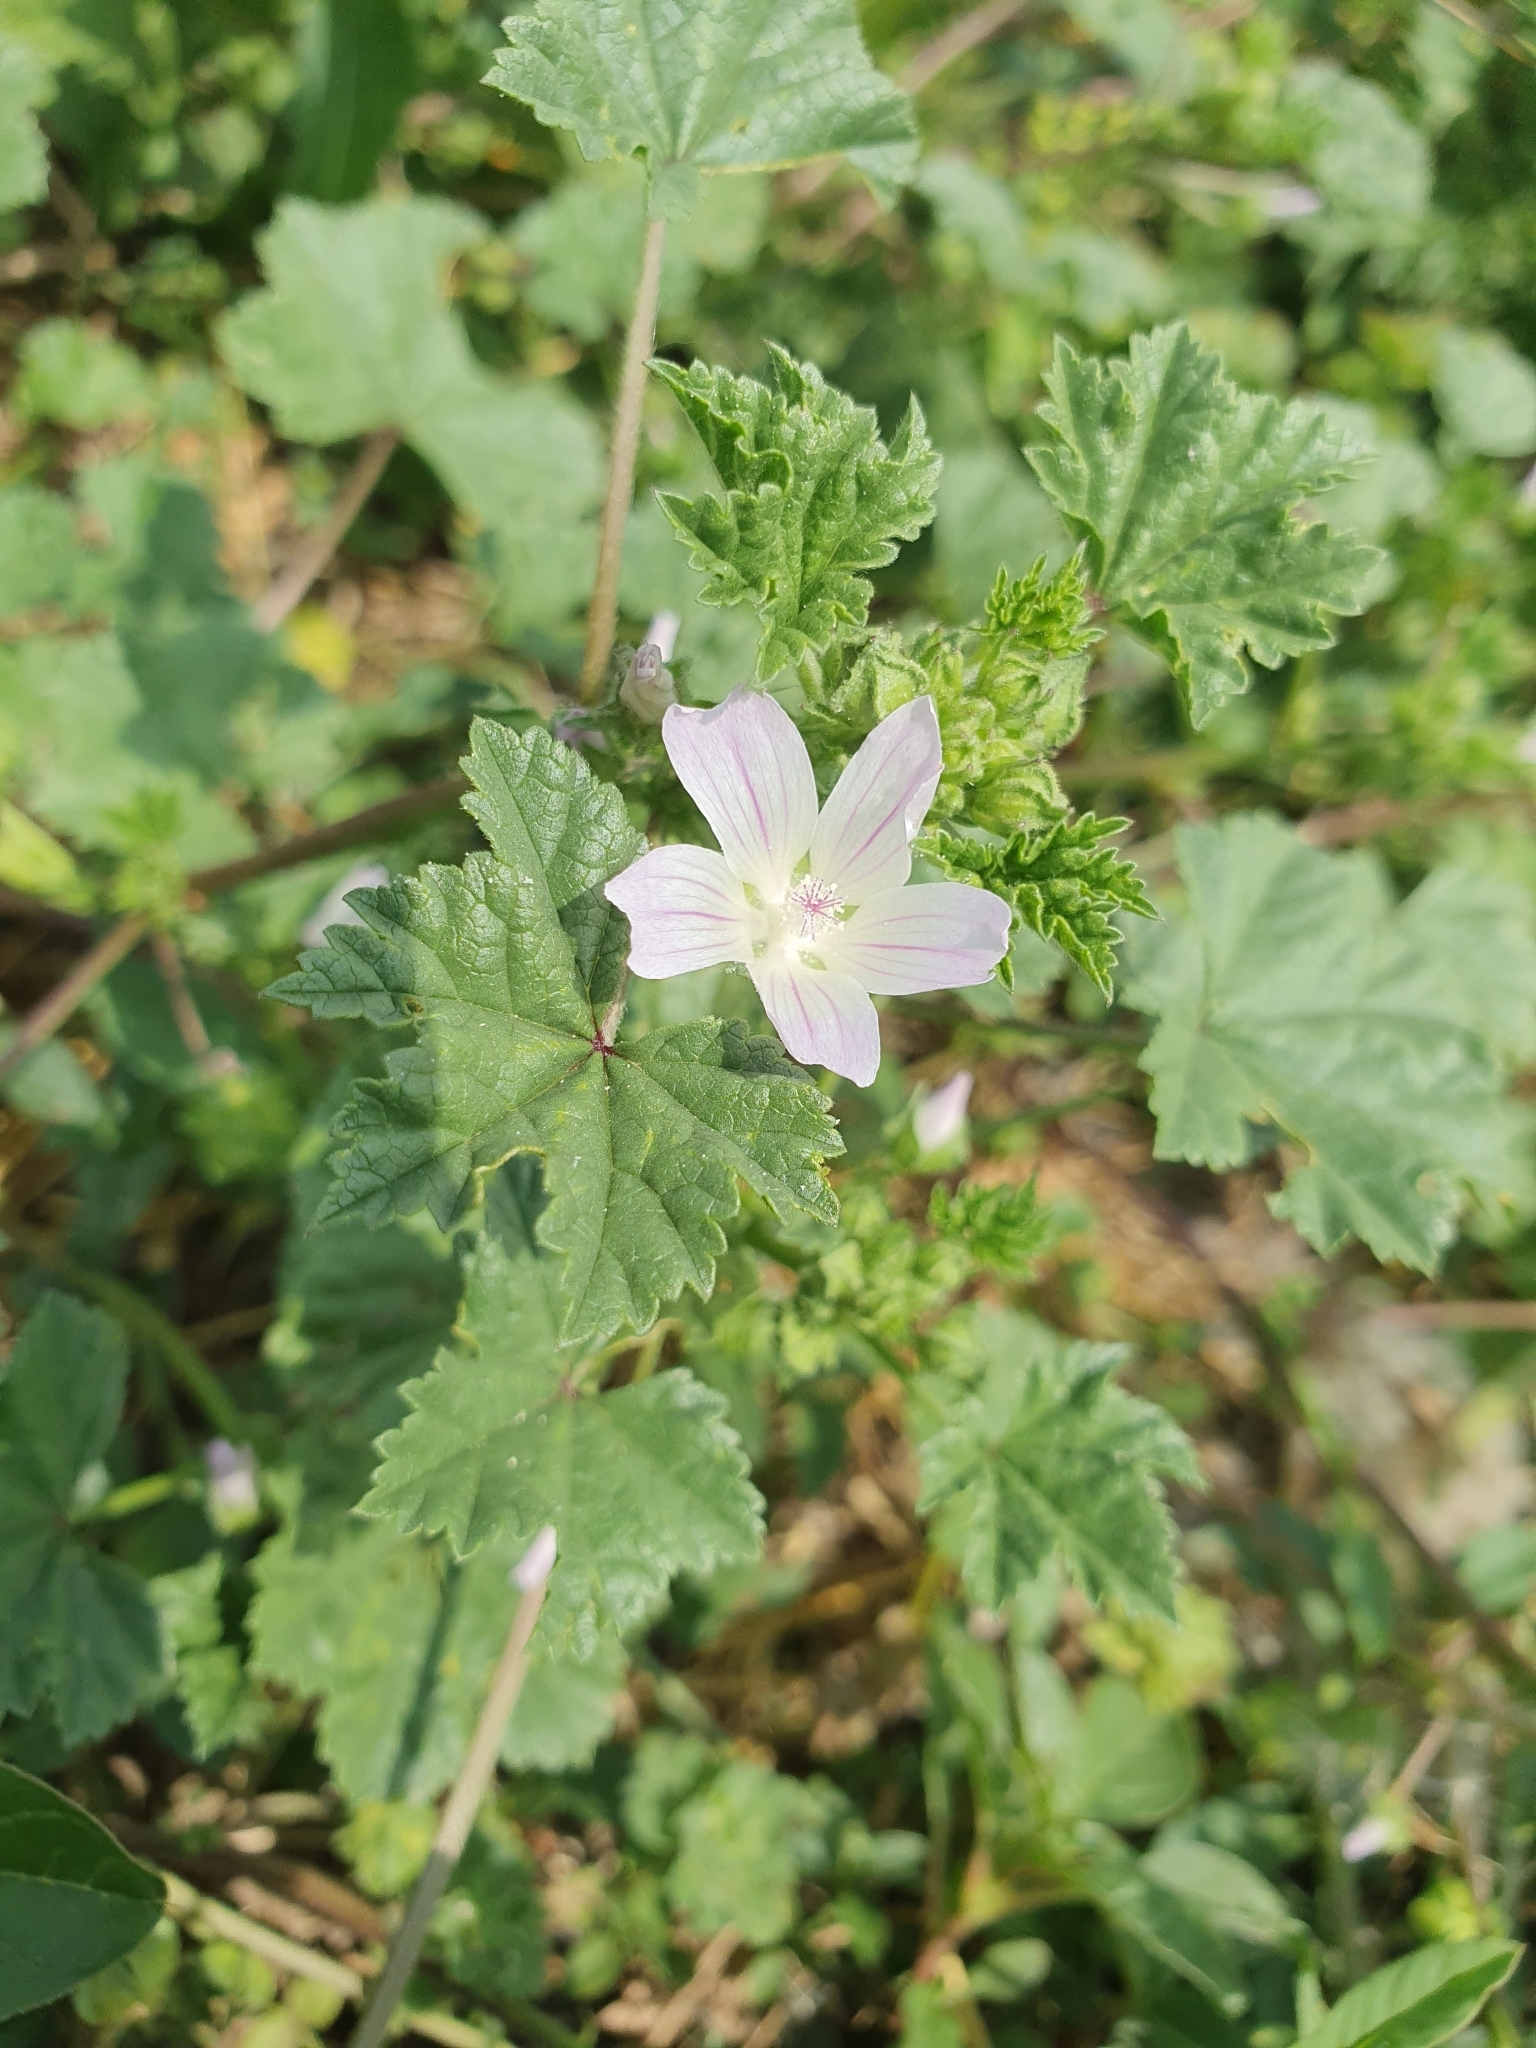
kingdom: Plantae
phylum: Tracheophyta
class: Magnoliopsida
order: Malvales
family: Malvaceae
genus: Malva
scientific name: Malva neglecta
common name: Common mallow
